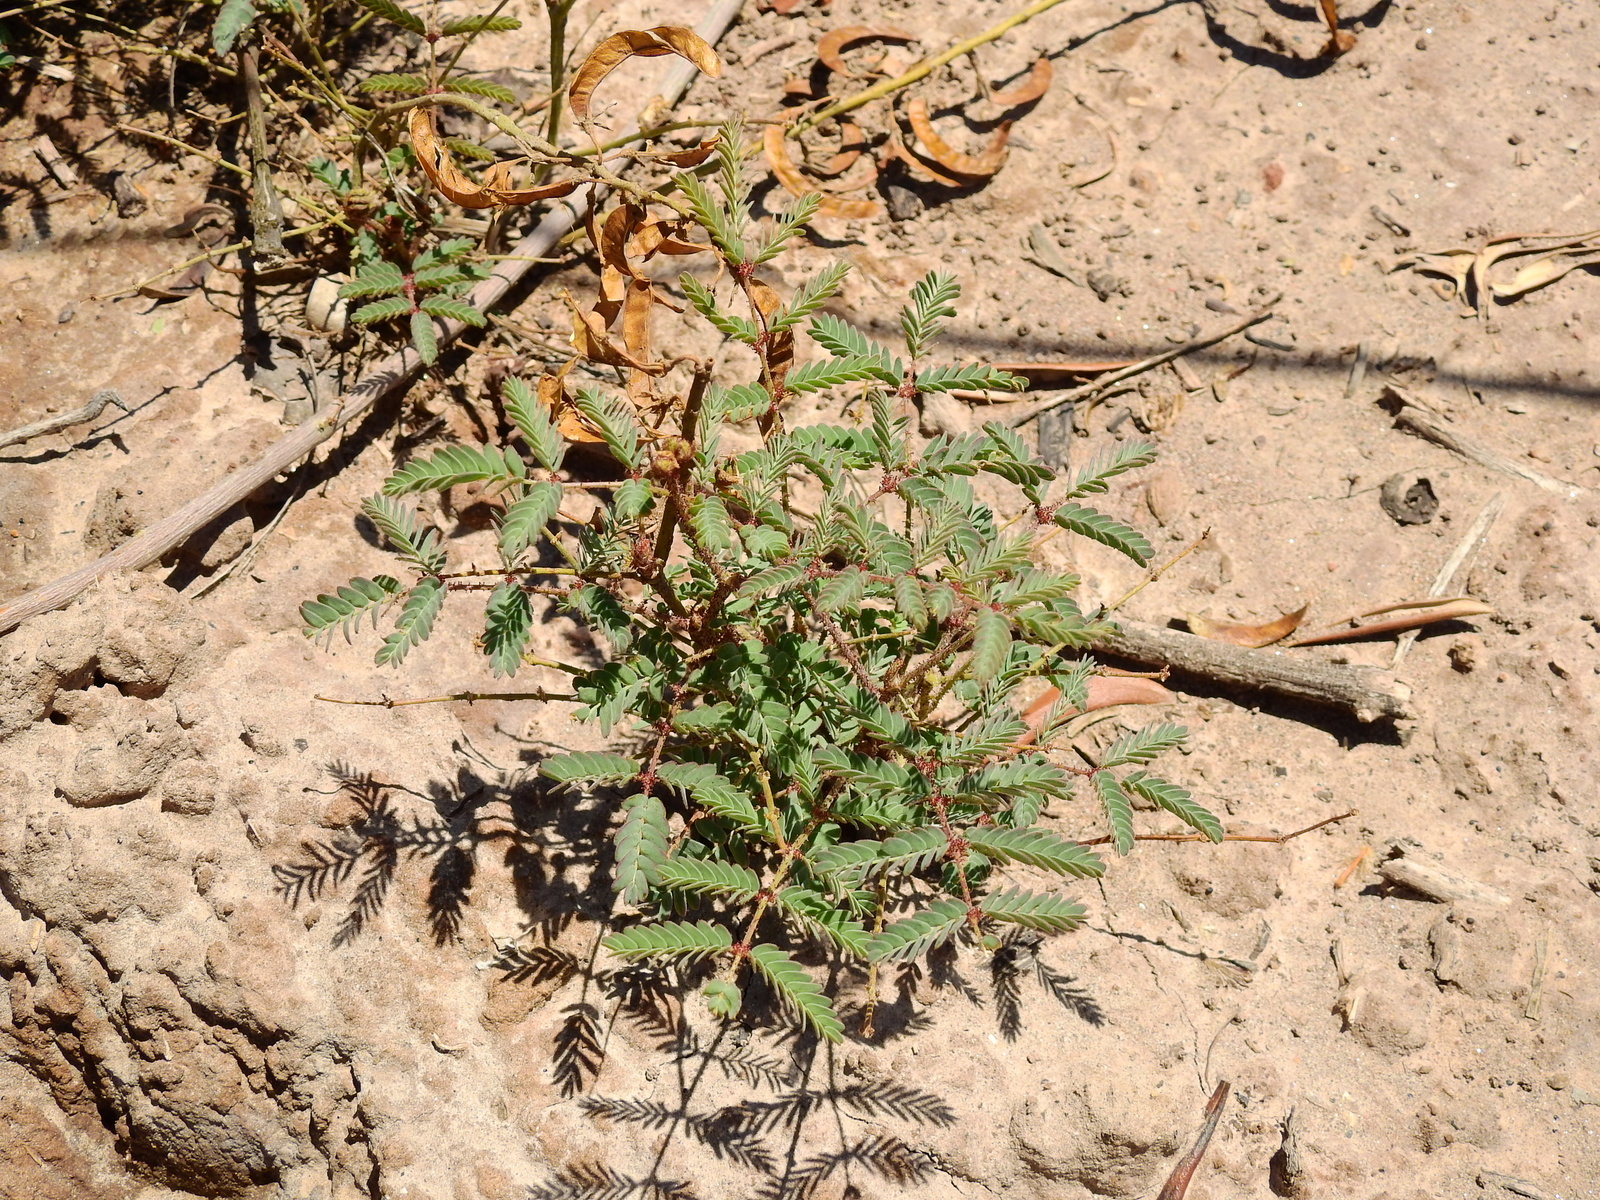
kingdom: Plantae
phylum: Tracheophyta
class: Magnoliopsida
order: Fabales
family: Fabaceae
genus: Hoffmannseggia
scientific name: Hoffmannseggia glauca
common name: Pignut
